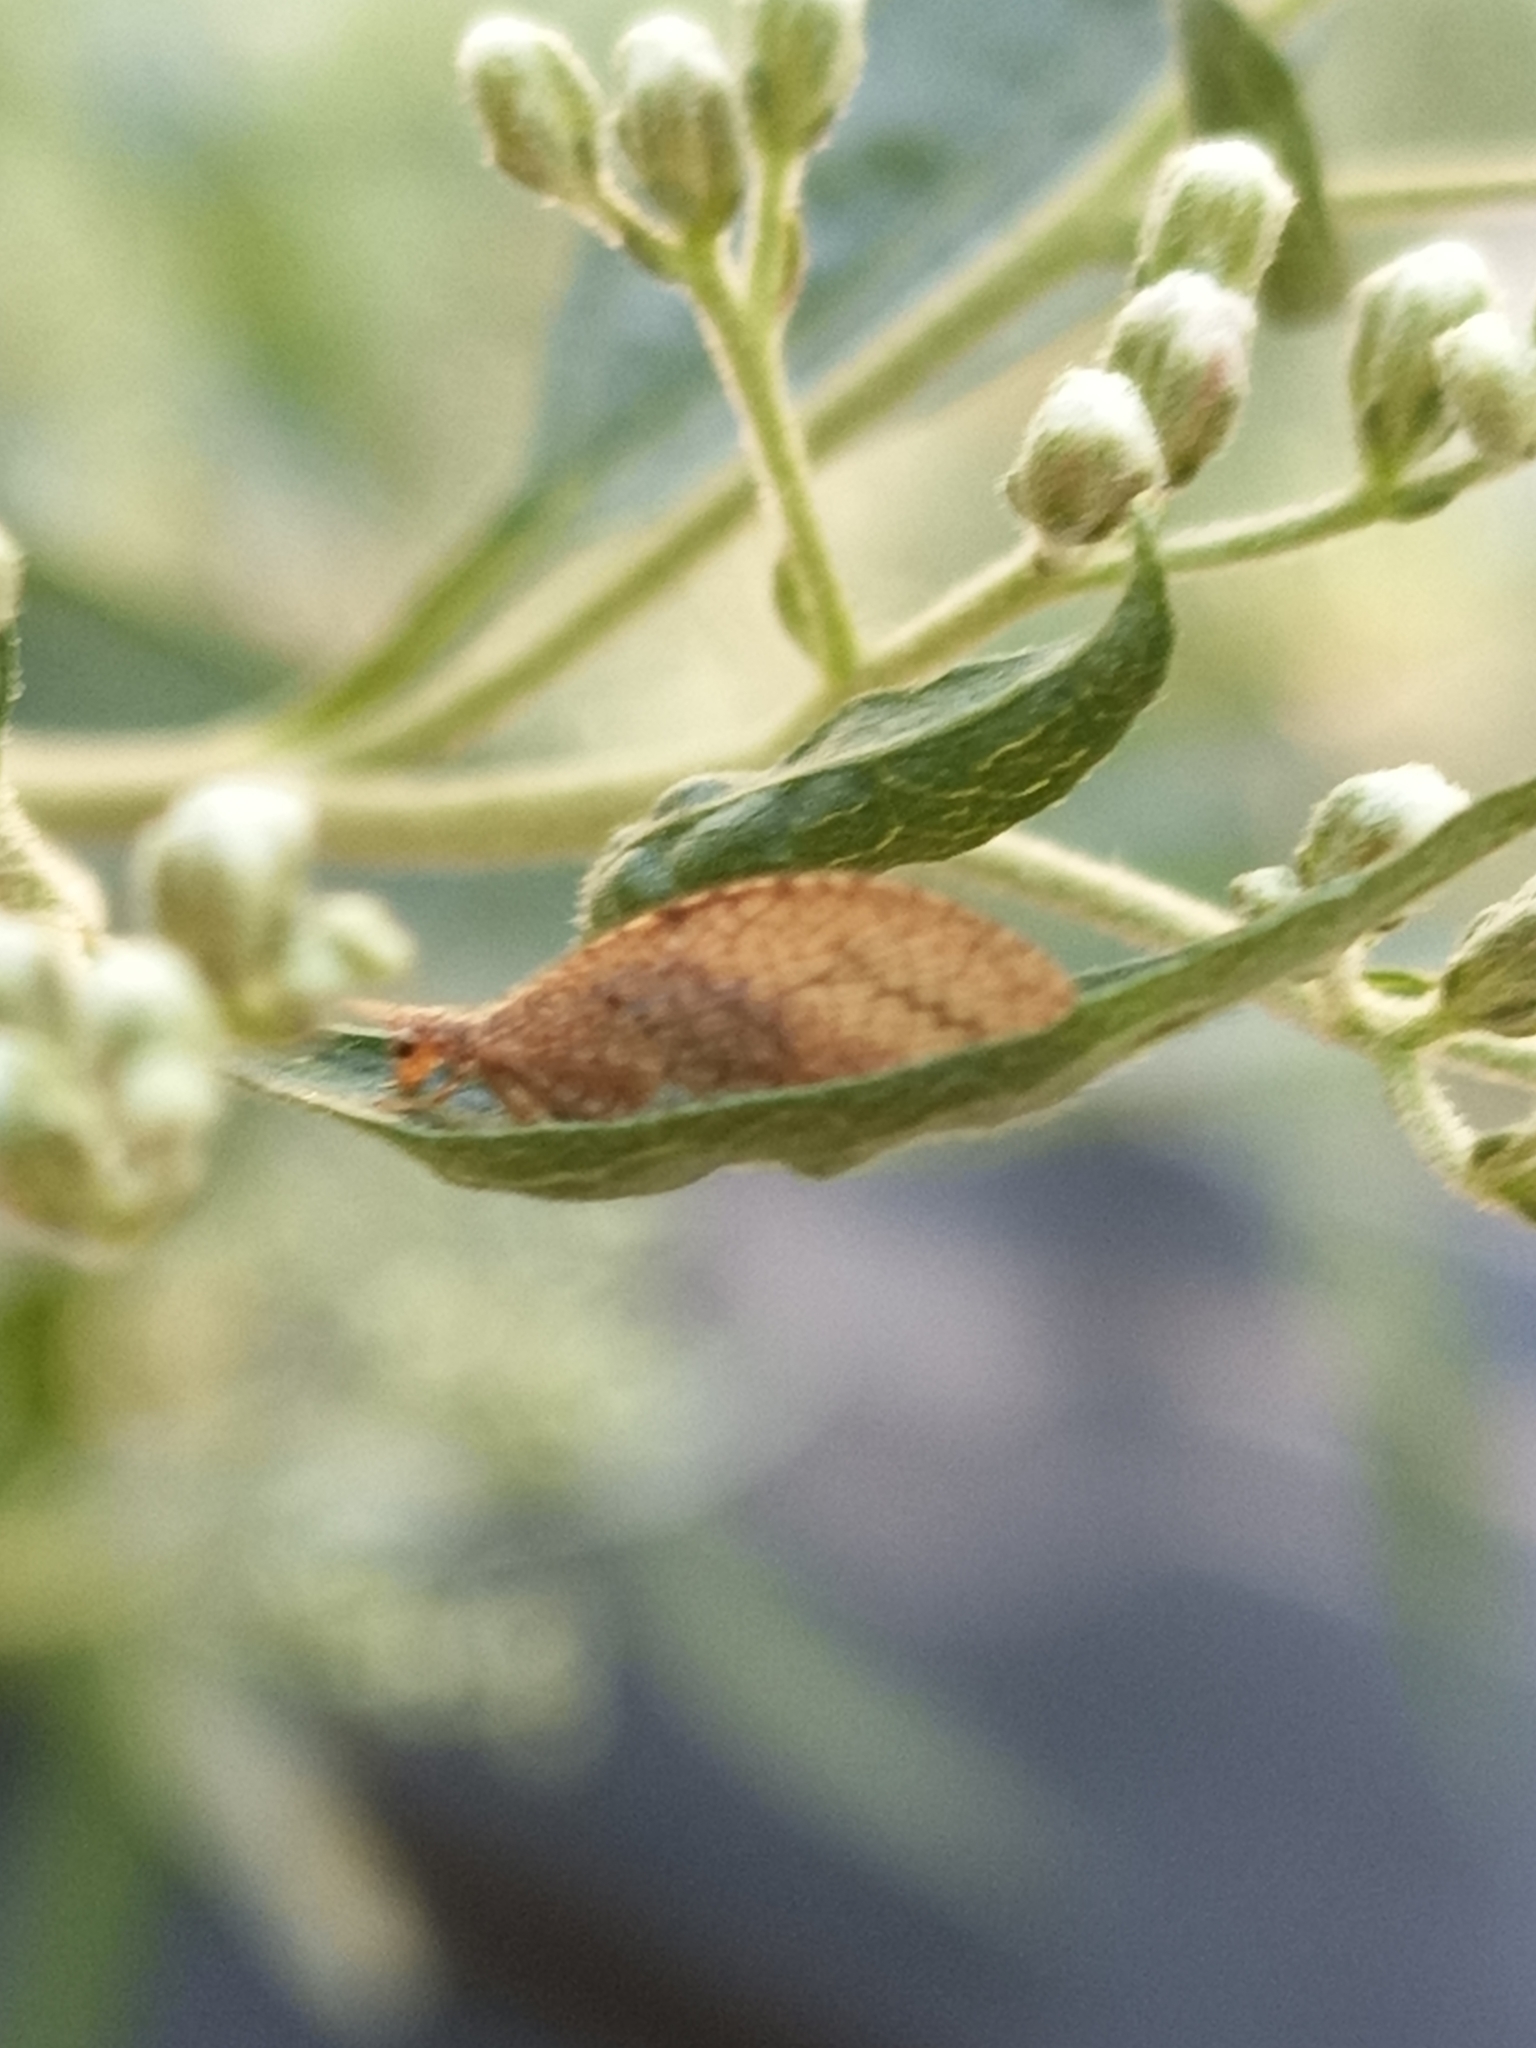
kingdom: Animalia
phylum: Arthropoda
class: Insecta
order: Neuroptera
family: Hemerobiidae
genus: Micromus
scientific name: Micromus posticus
